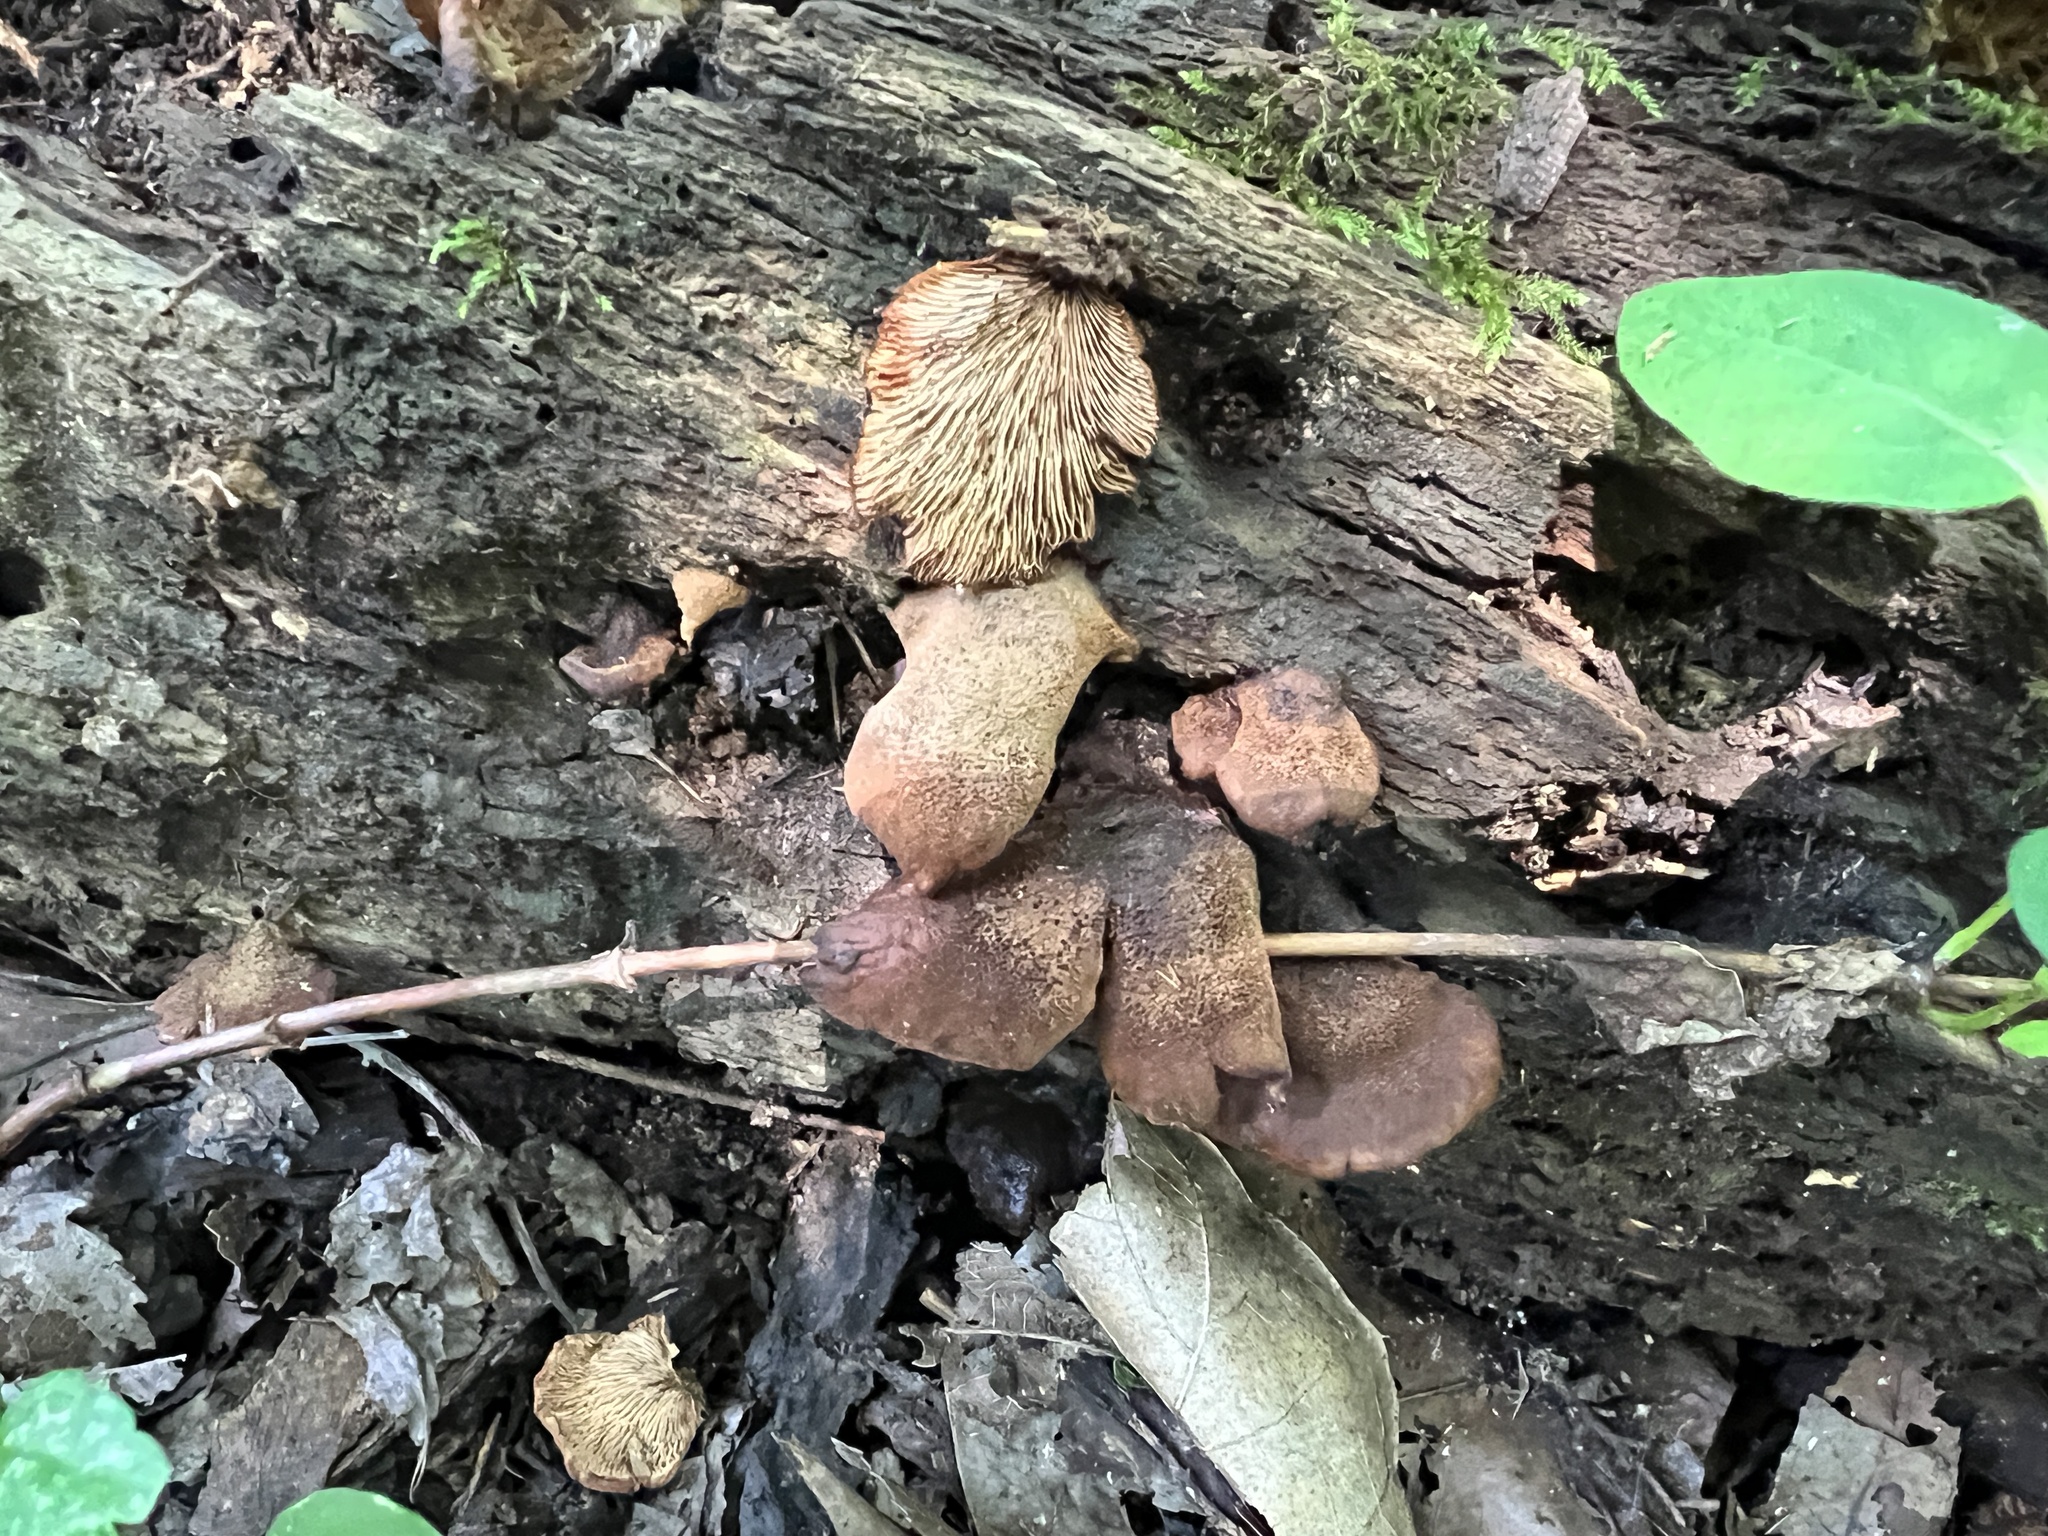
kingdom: Fungi
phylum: Basidiomycota
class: Agaricomycetes
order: Russulales
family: Auriscalpiaceae
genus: Lentinellus
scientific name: Lentinellus ursinus
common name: Bear lentinus
